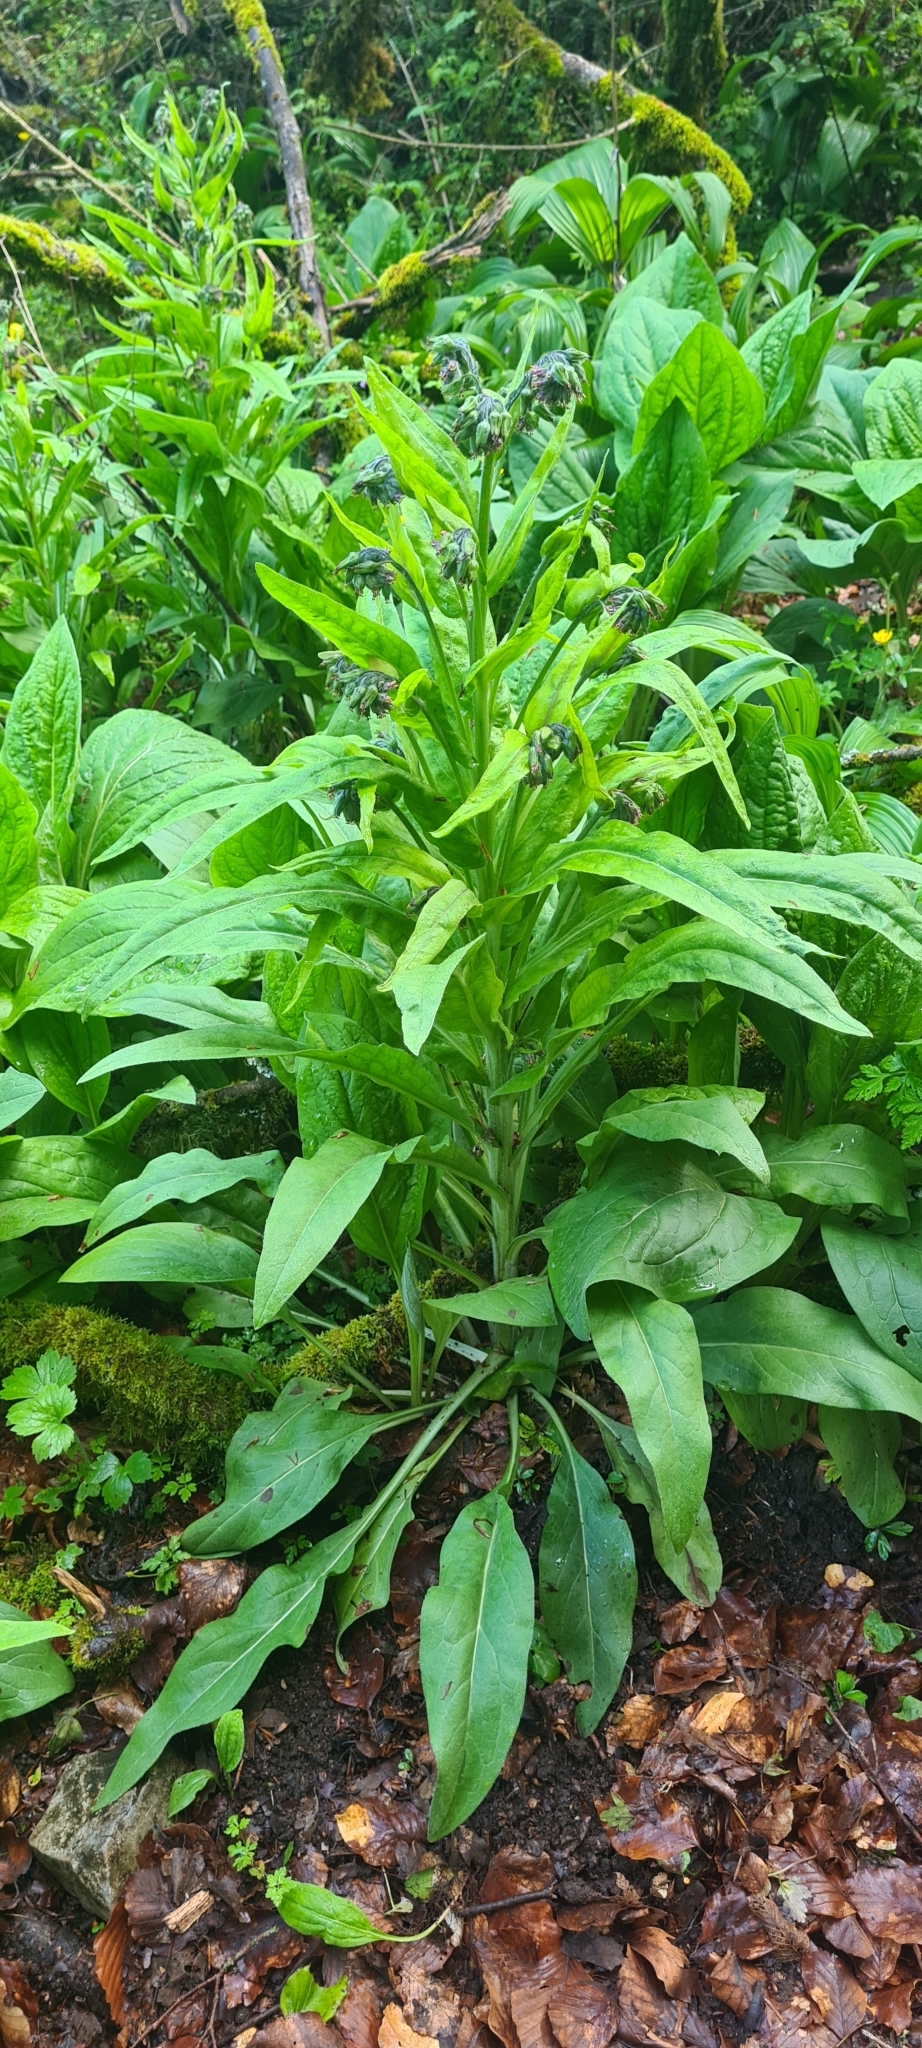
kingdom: Plantae
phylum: Tracheophyta
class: Magnoliopsida
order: Boraginales
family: Boraginaceae
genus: Symphytum
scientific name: Symphytum officinale
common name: Common comfrey
